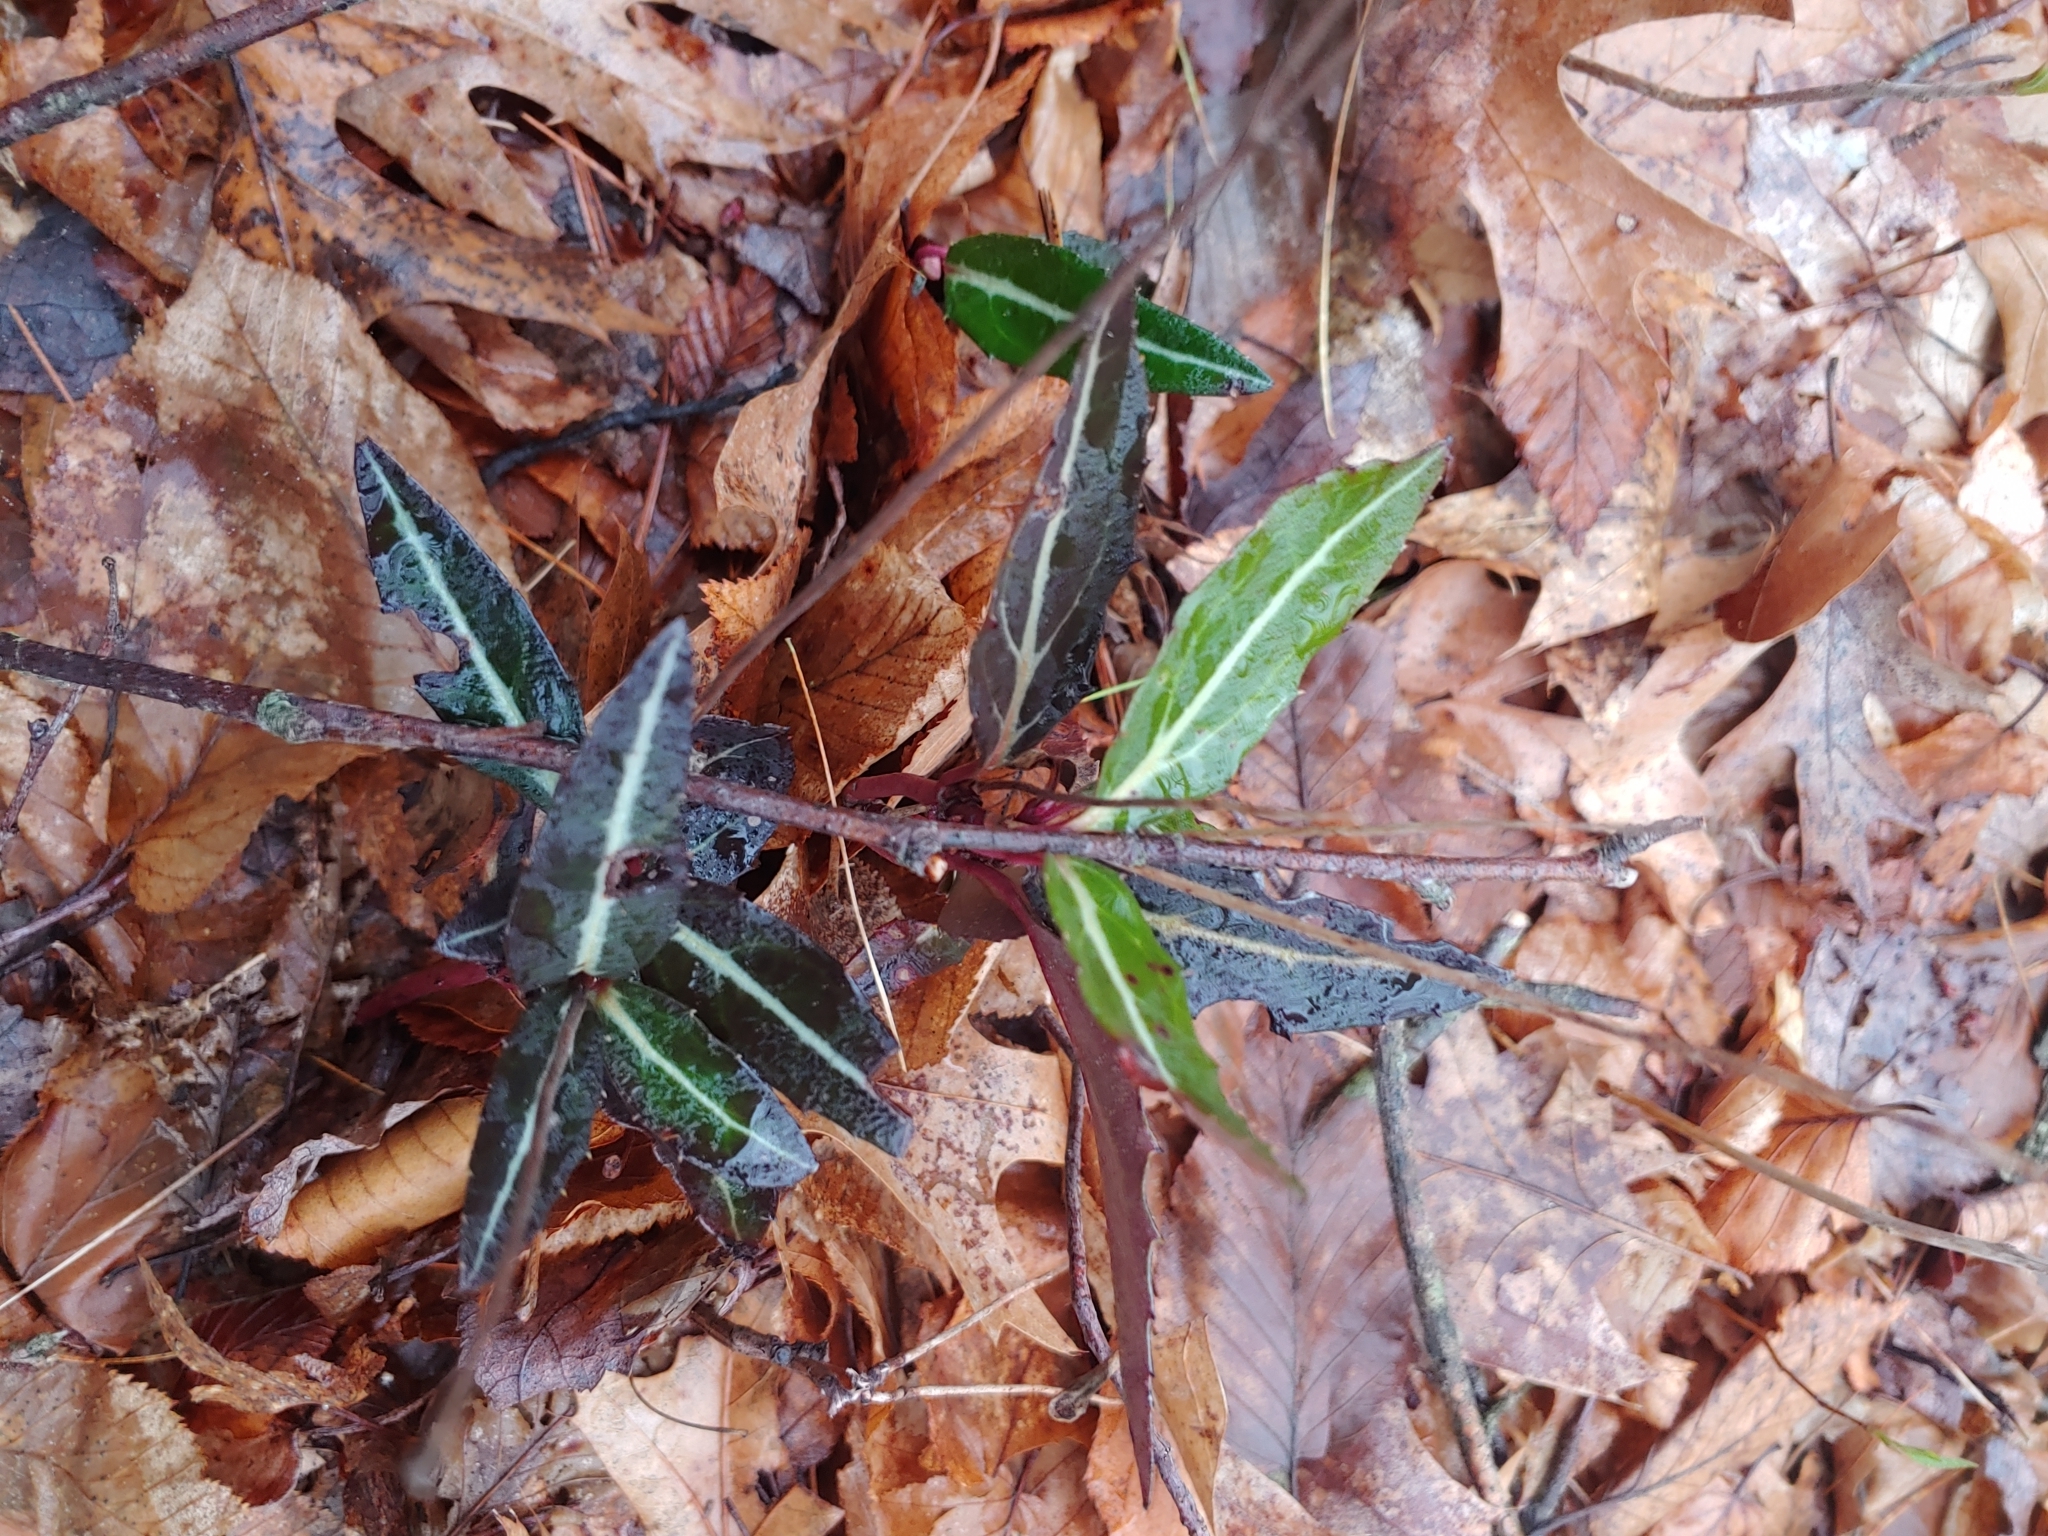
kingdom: Plantae
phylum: Tracheophyta
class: Magnoliopsida
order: Ericales
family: Ericaceae
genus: Chimaphila
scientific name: Chimaphila maculata
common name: Spotted pipsissewa
